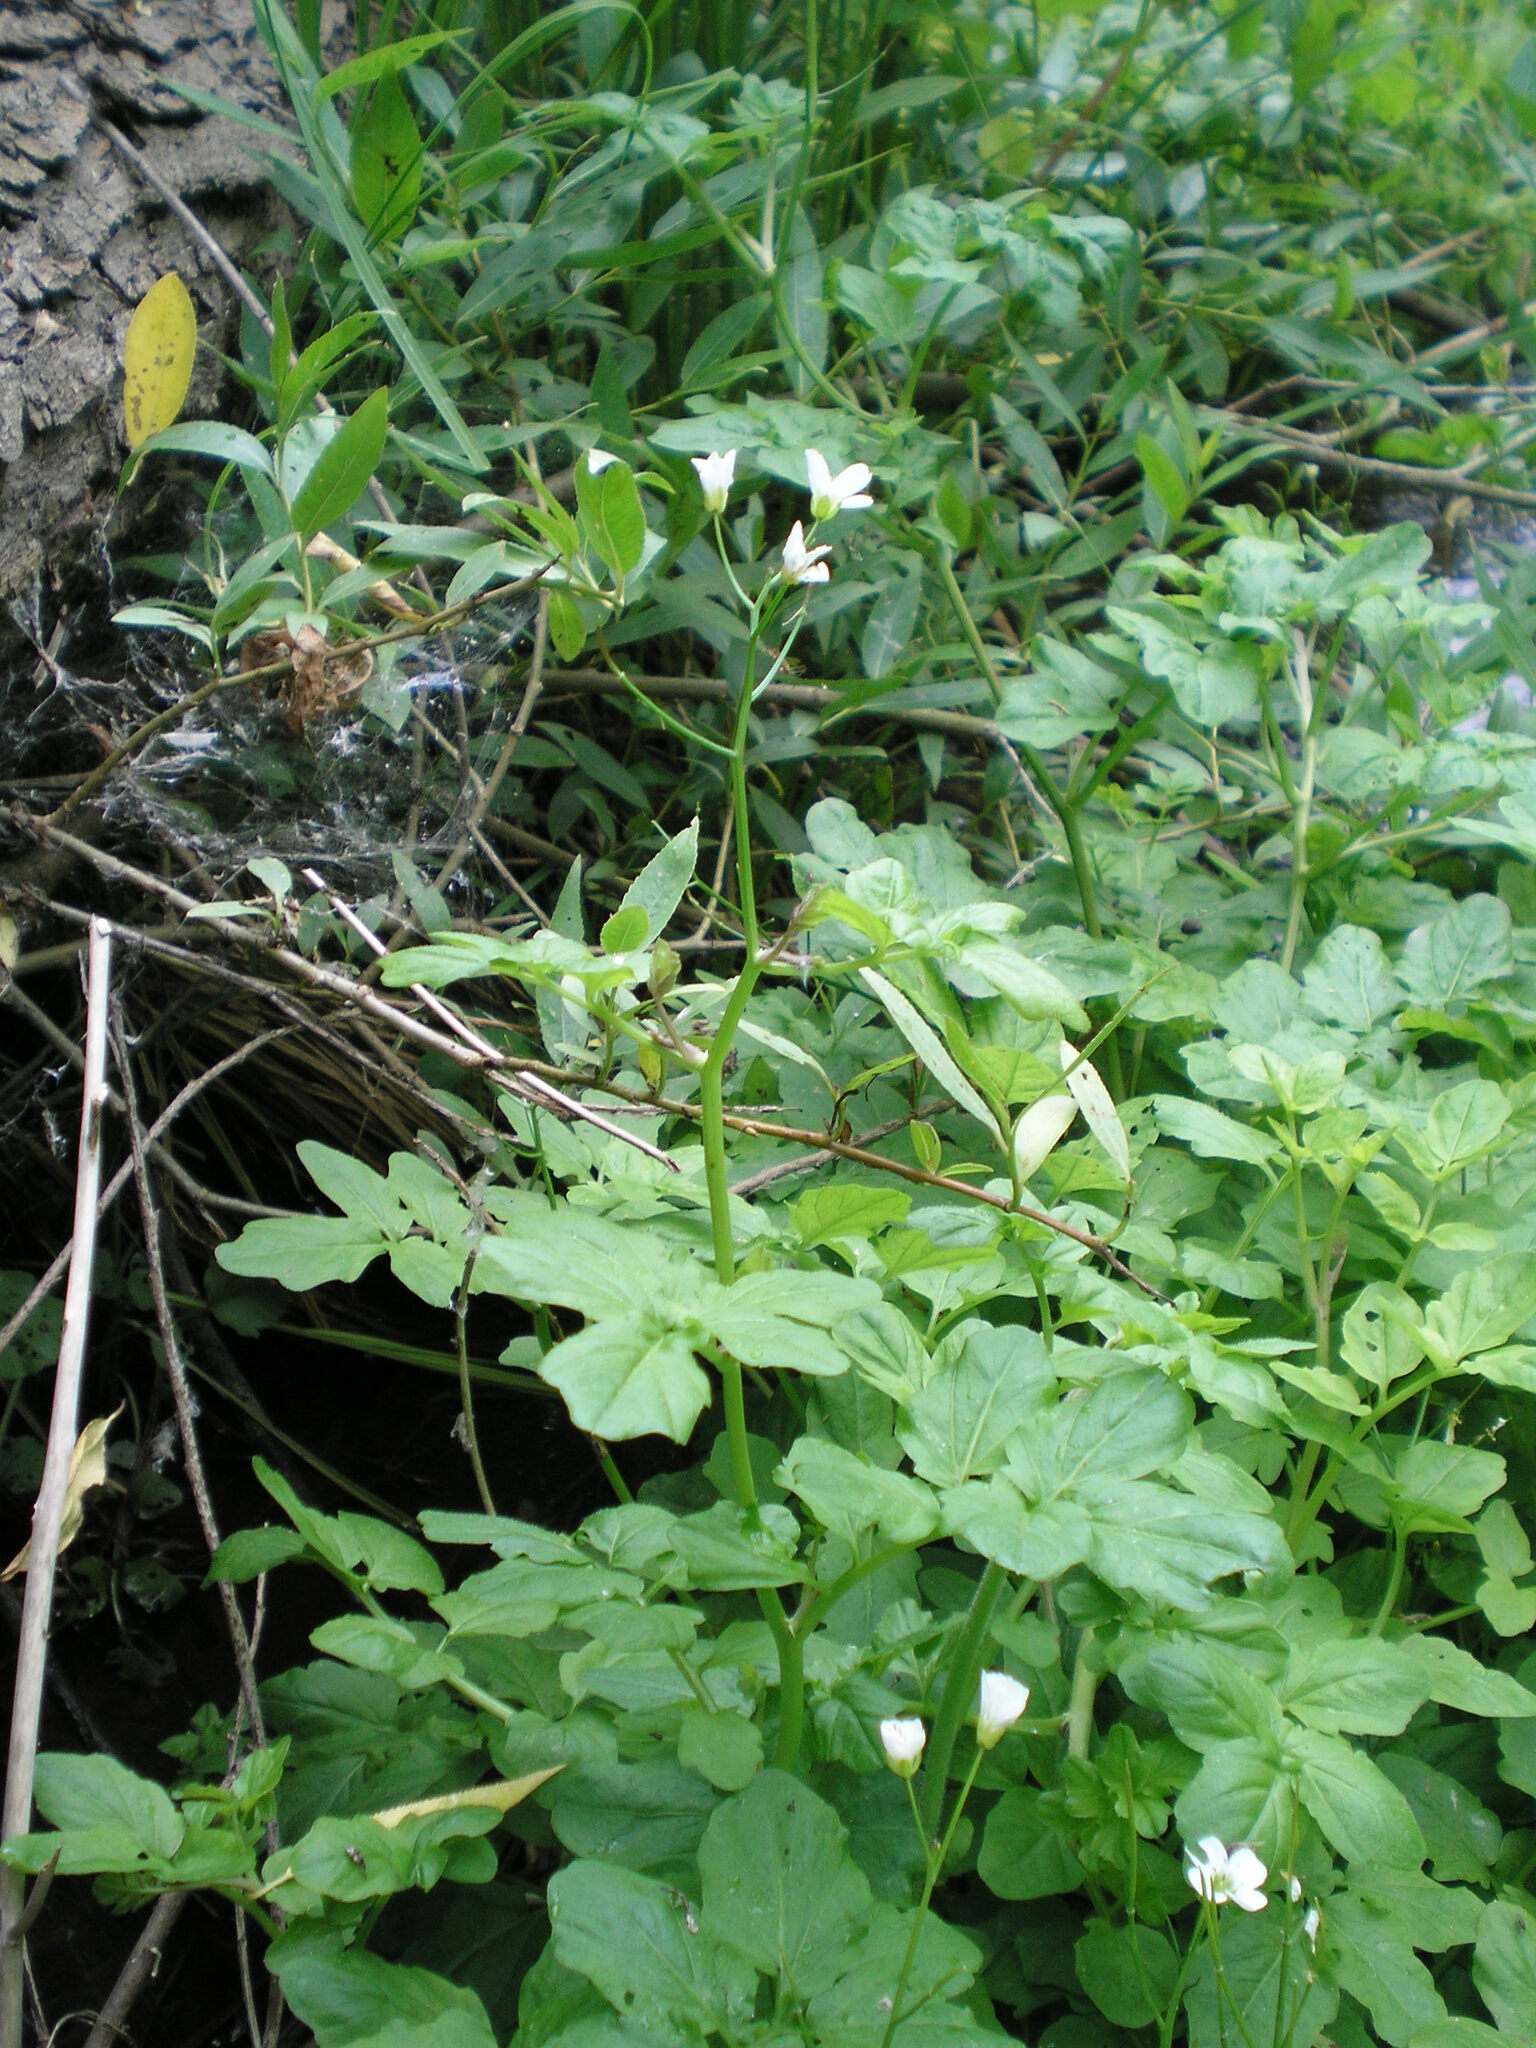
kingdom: Plantae
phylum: Tracheophyta
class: Magnoliopsida
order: Brassicales
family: Brassicaceae
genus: Cardamine
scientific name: Cardamine amara
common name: Large bitter-cress
